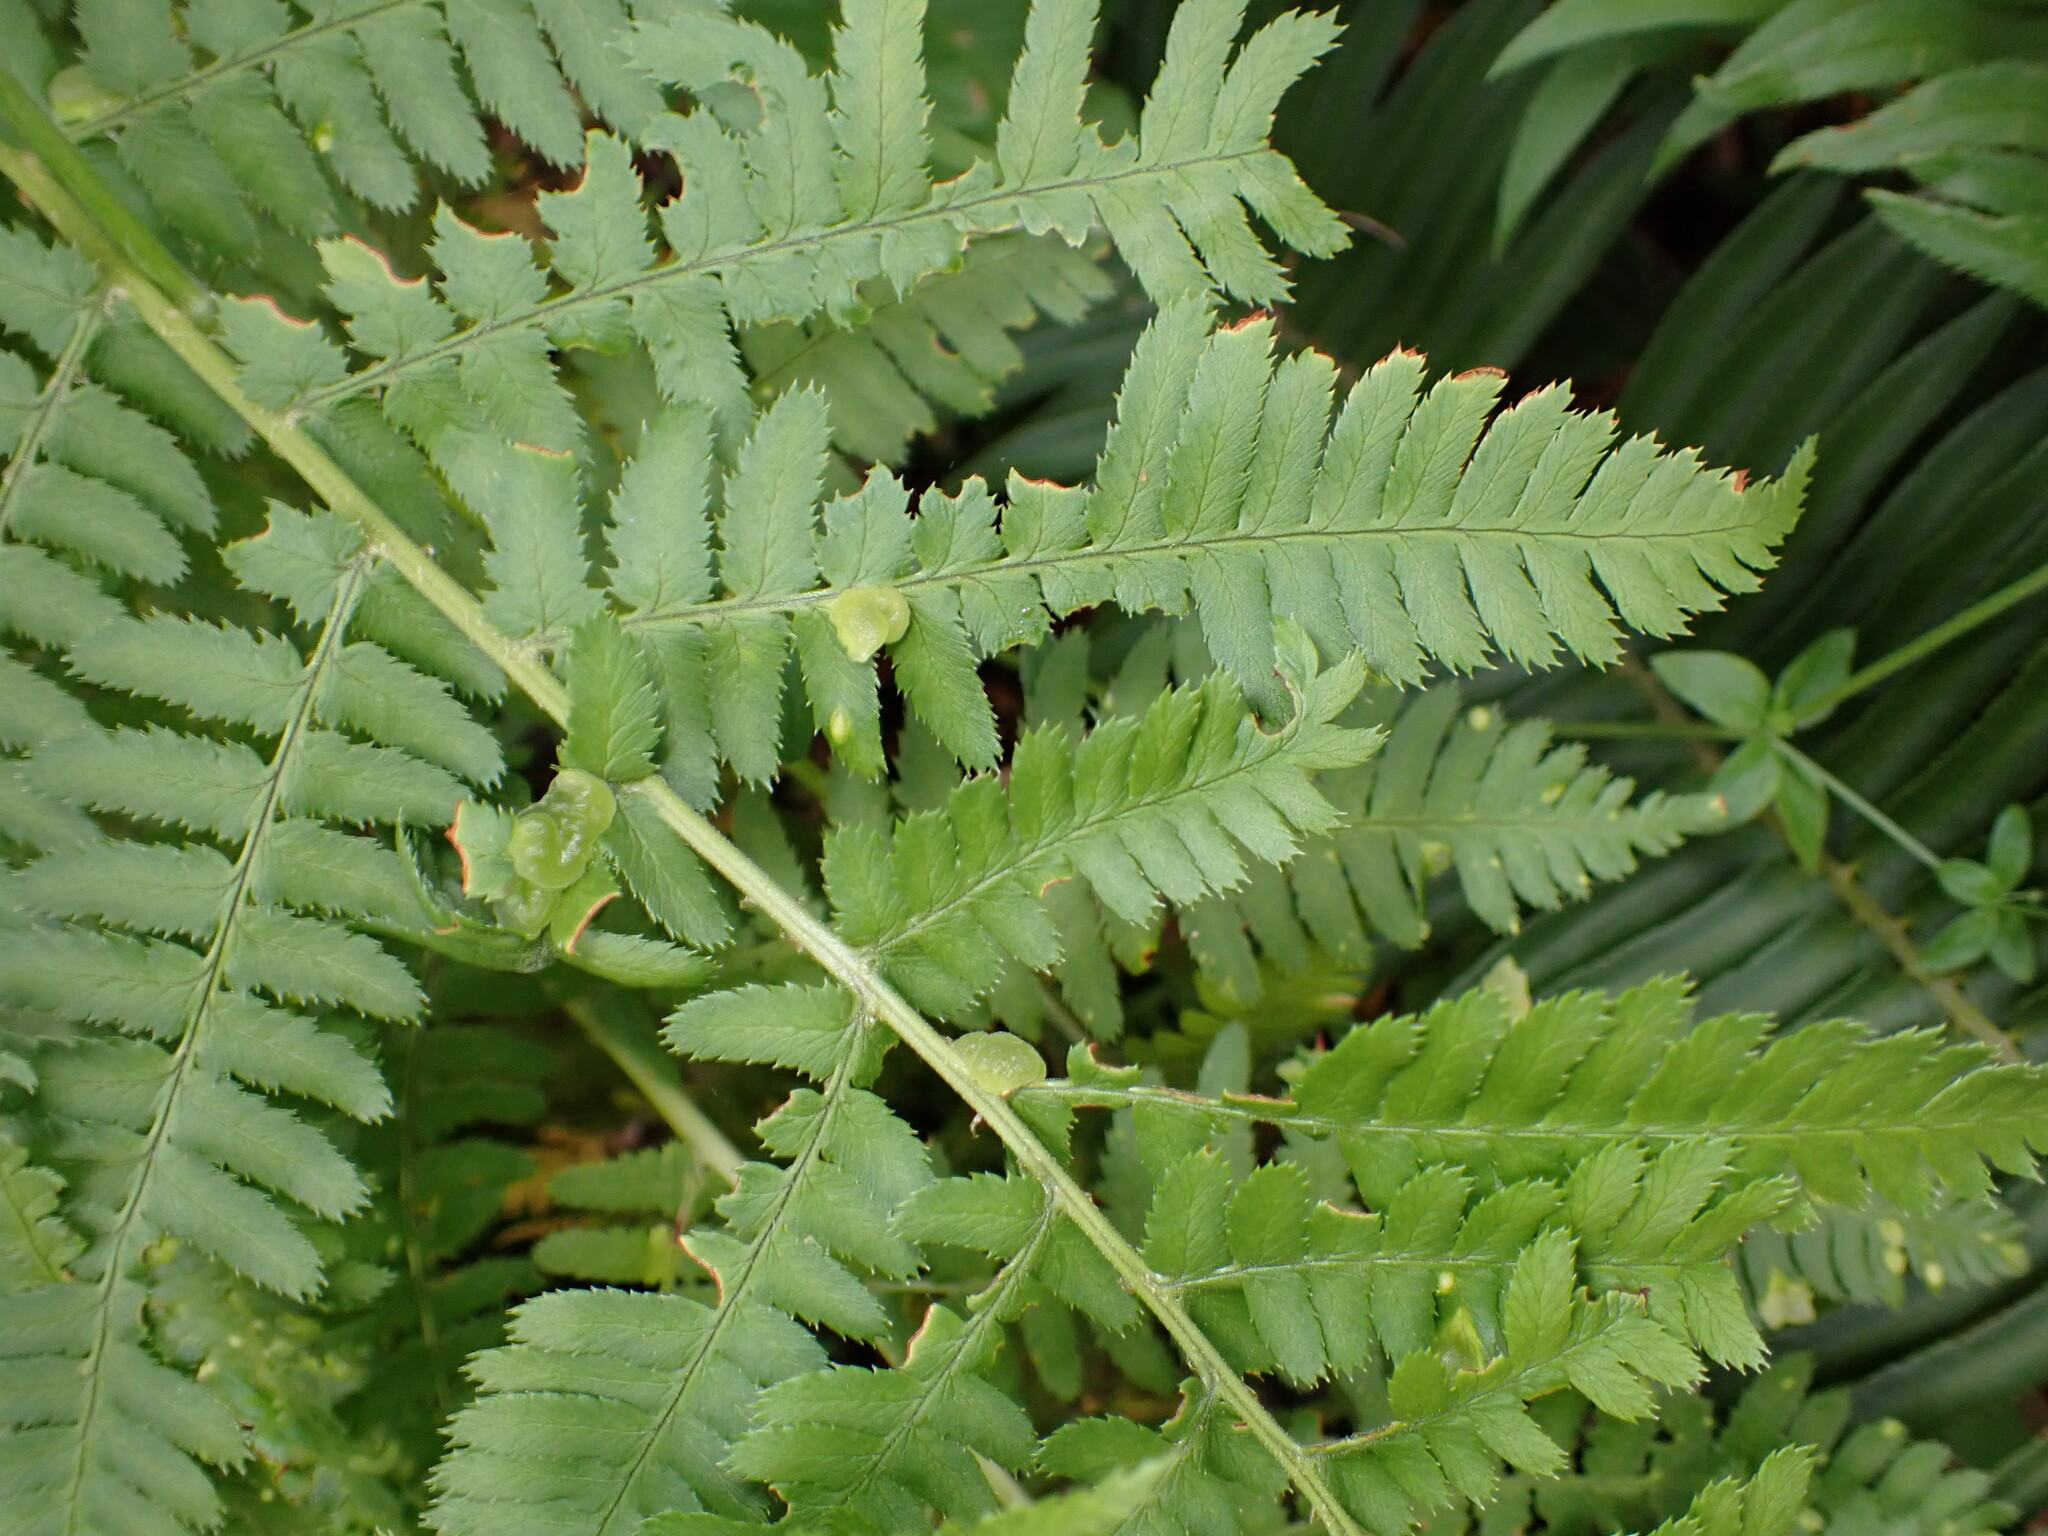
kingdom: Plantae
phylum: Tracheophyta
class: Polypodiopsida
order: Polypodiales
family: Dryopteridaceae
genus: Dryopteris
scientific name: Dryopteris arguta
